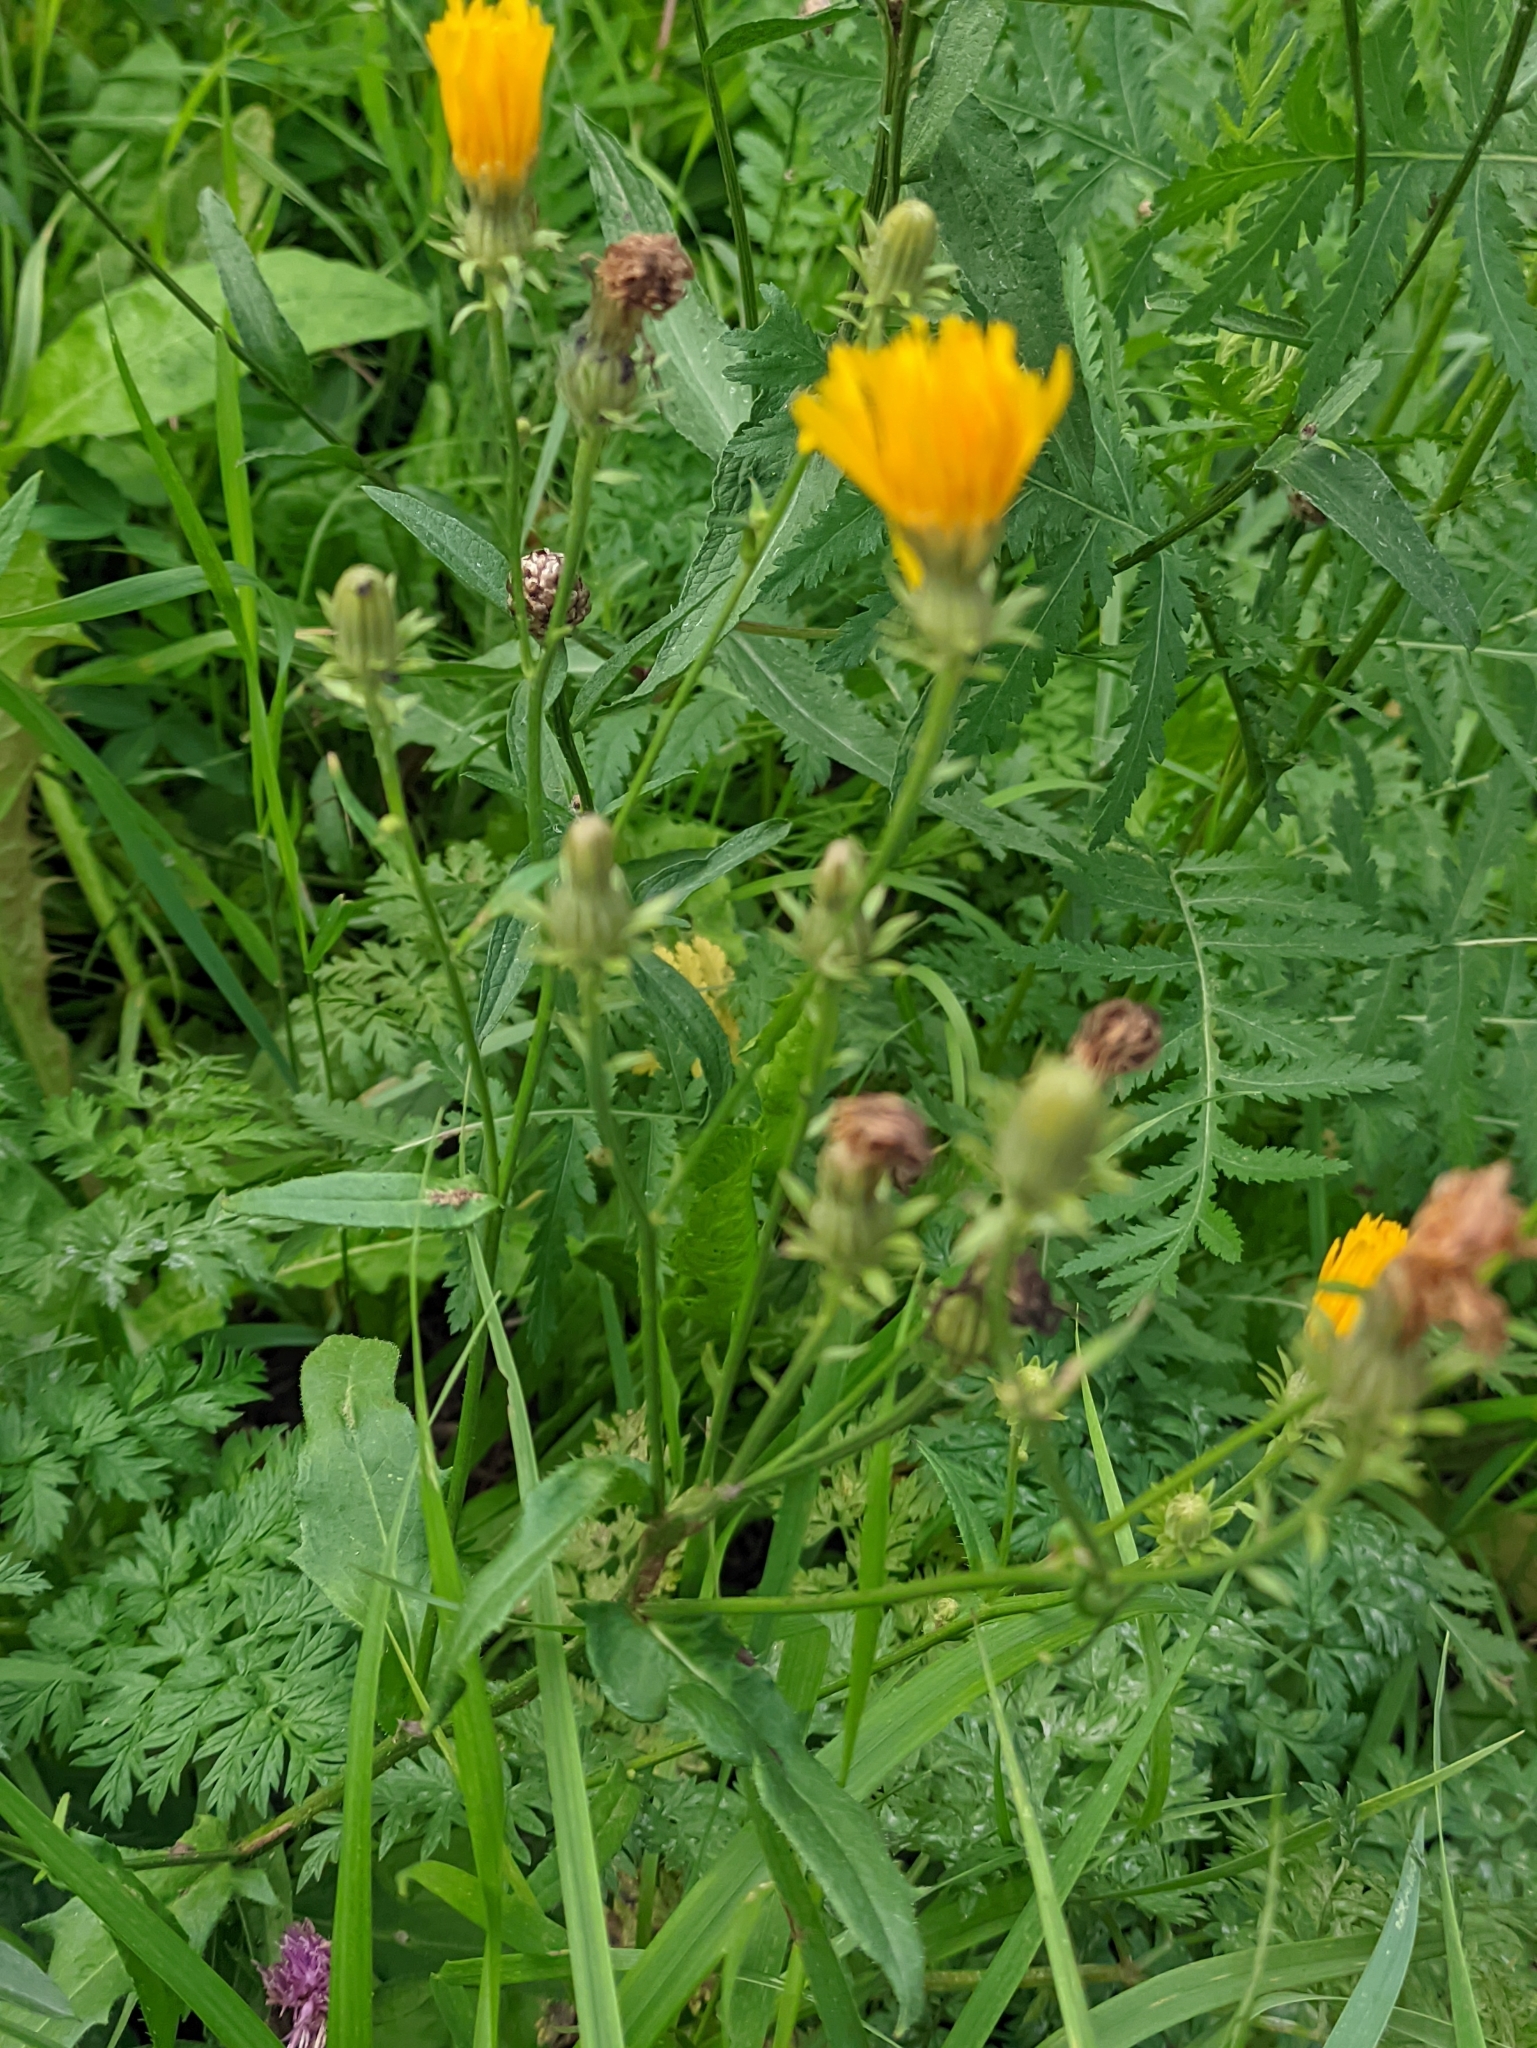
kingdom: Plantae
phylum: Tracheophyta
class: Magnoliopsida
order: Asterales
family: Asteraceae
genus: Picris
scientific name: Picris hieracioides
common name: Hawkweed oxtongue
